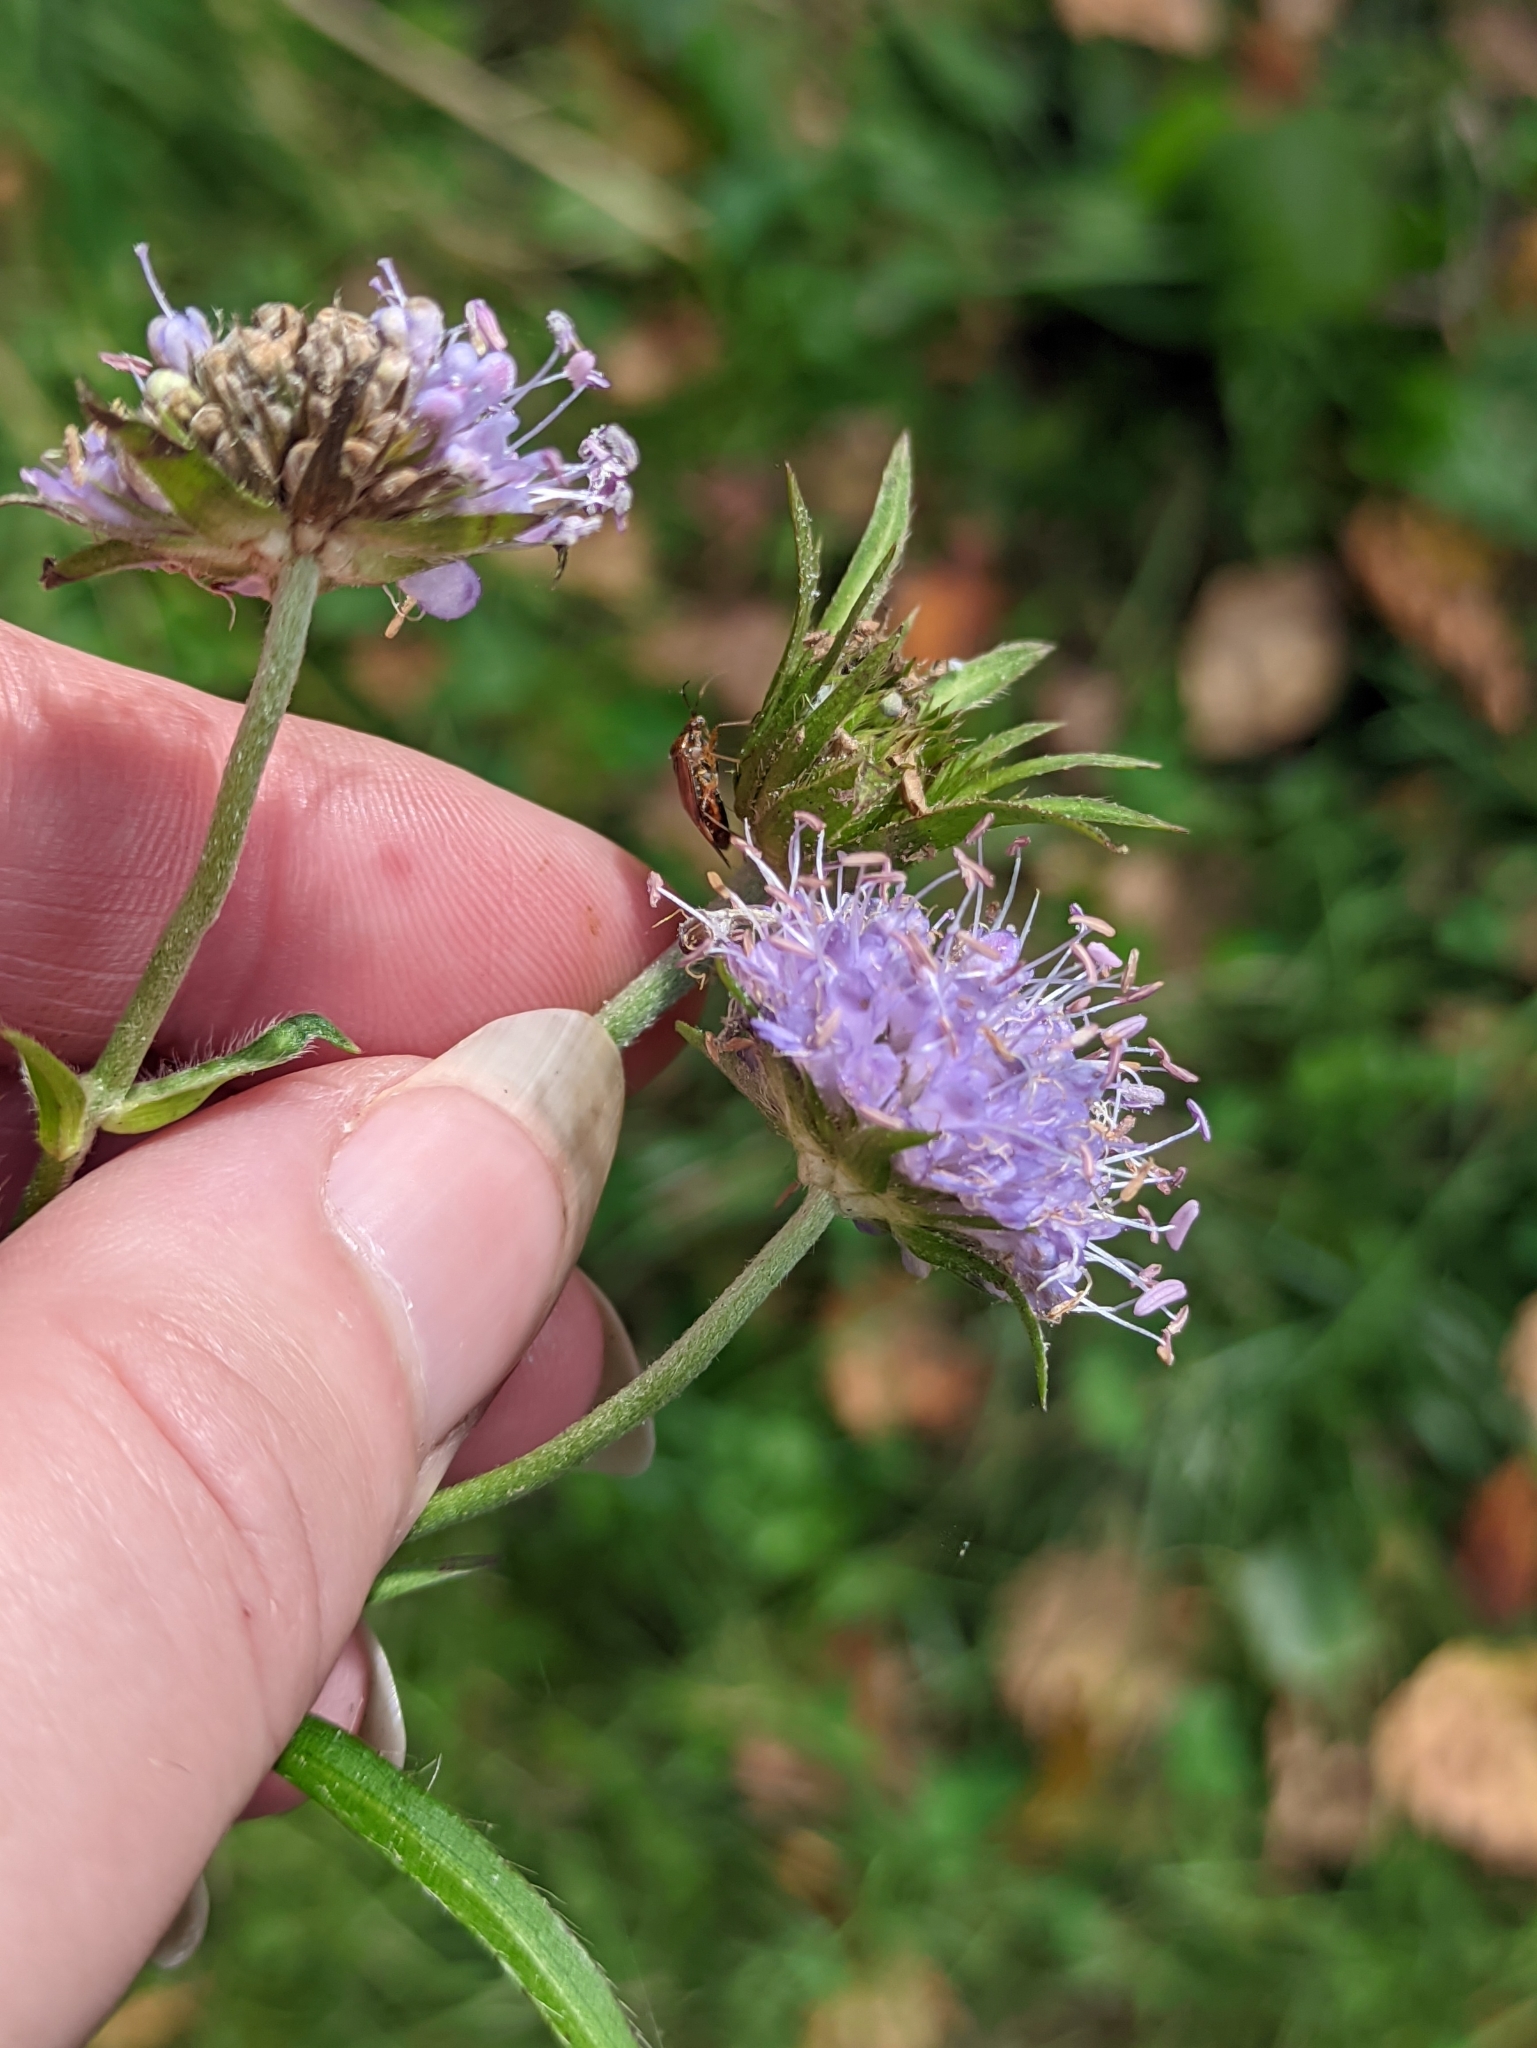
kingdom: Plantae
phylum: Tracheophyta
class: Magnoliopsida
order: Dipsacales
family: Caprifoliaceae
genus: Succisa
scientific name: Succisa pratensis
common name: Devil's-bit
